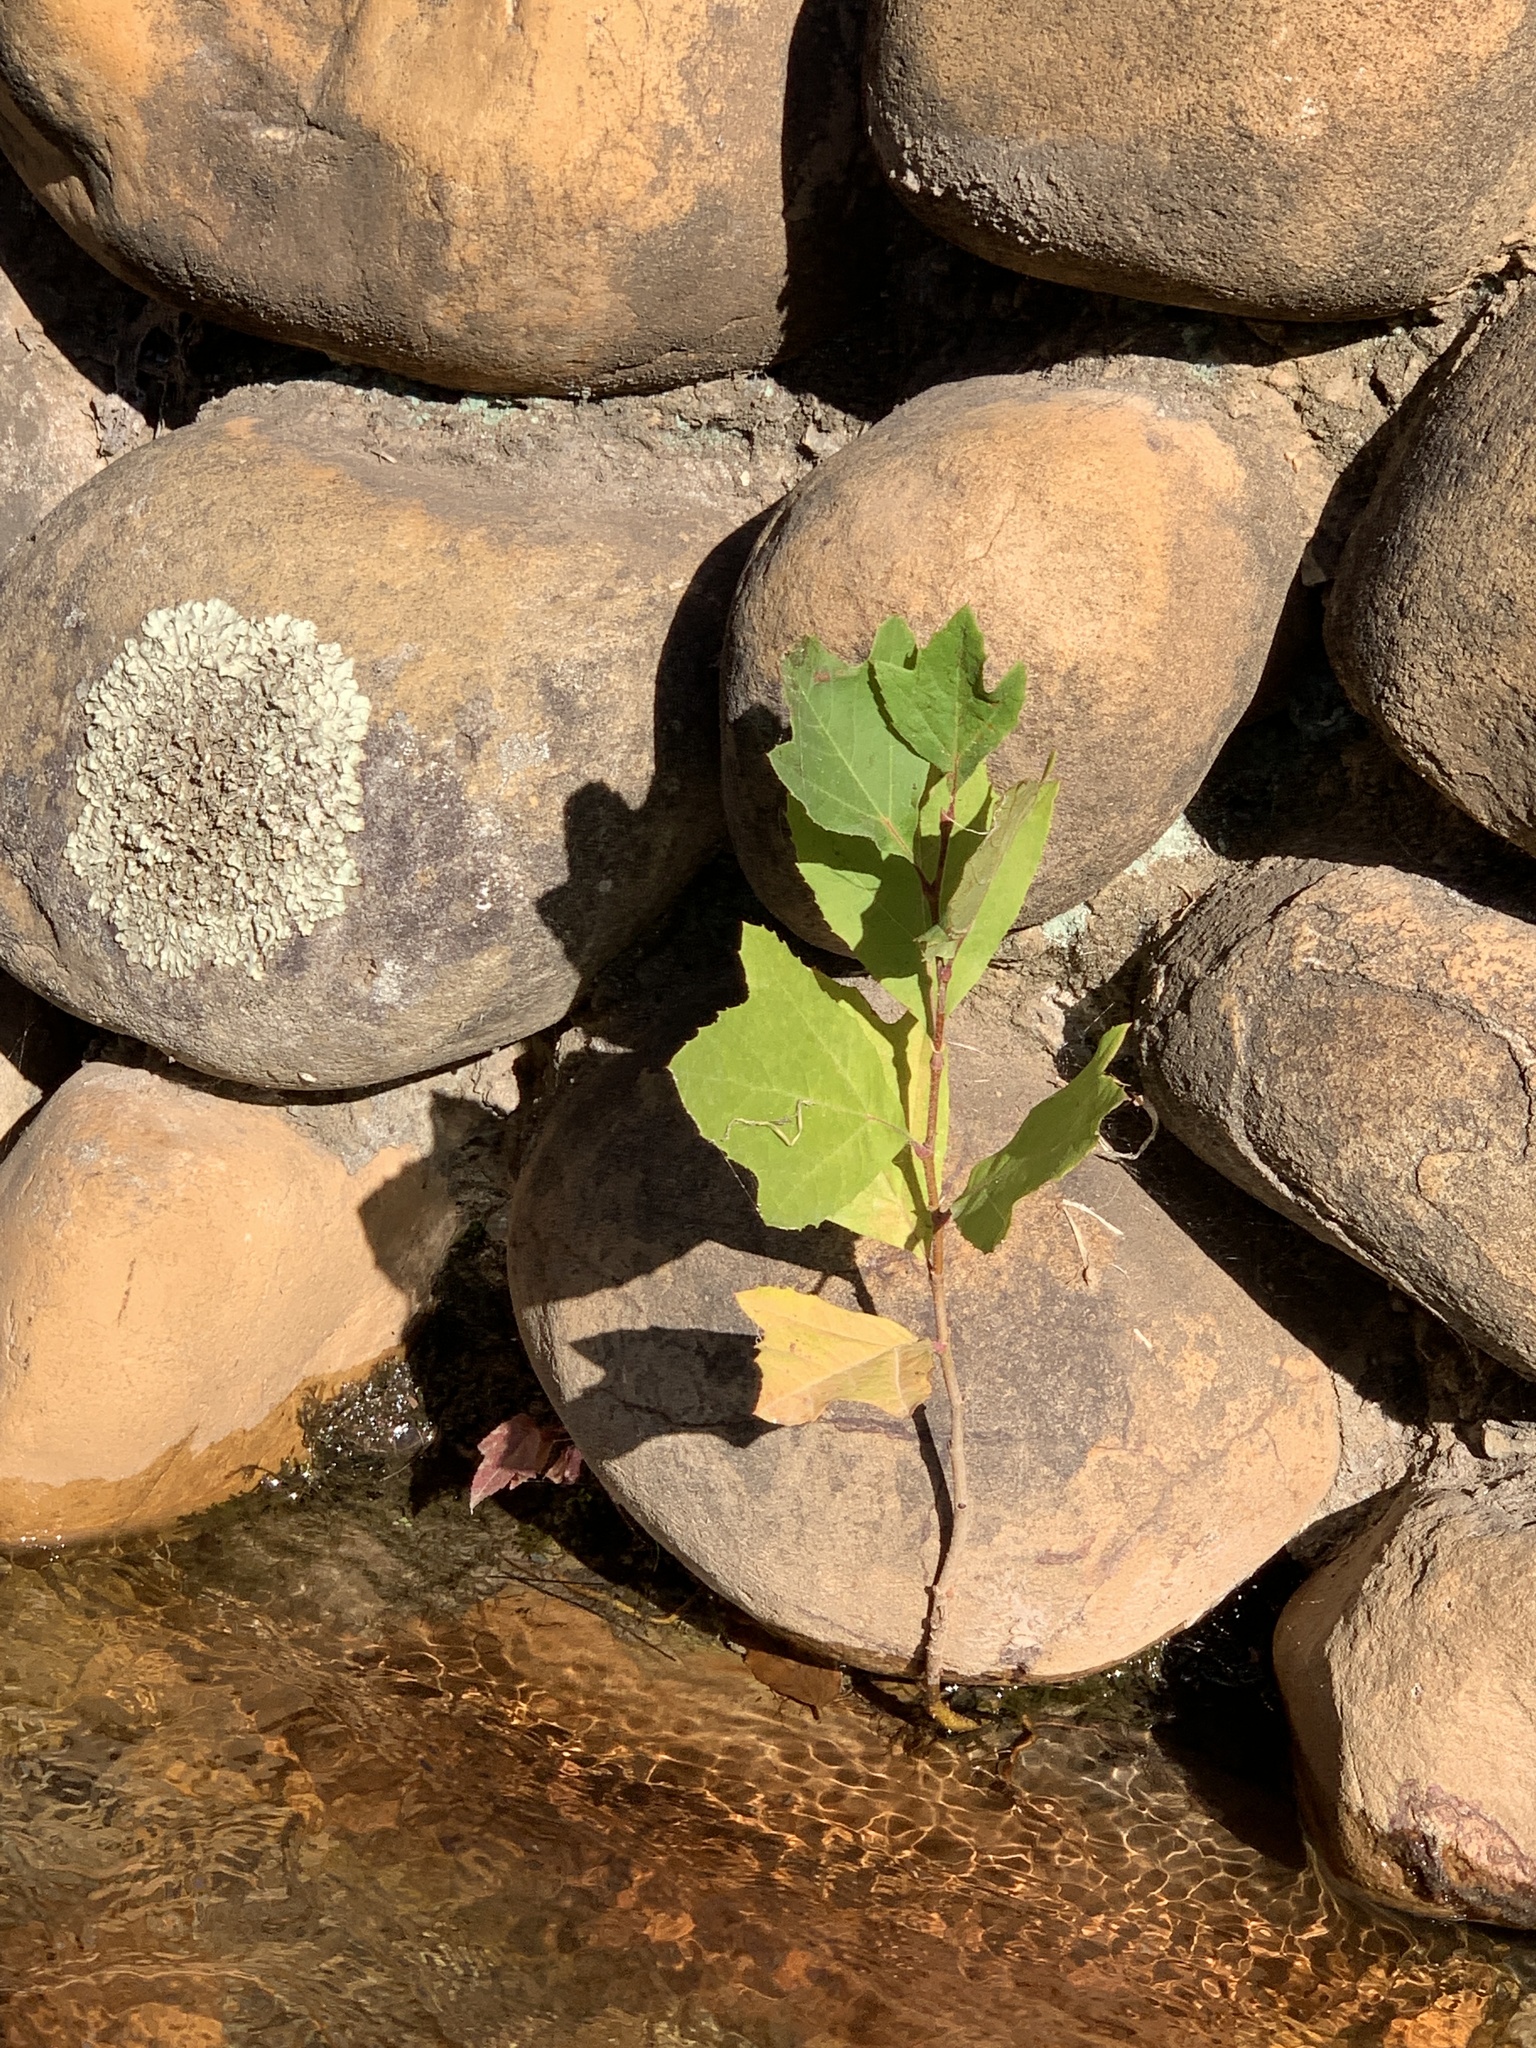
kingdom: Plantae
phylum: Tracheophyta
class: Magnoliopsida
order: Proteales
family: Platanaceae
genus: Platanus
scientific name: Platanus hispanica
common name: London plane
